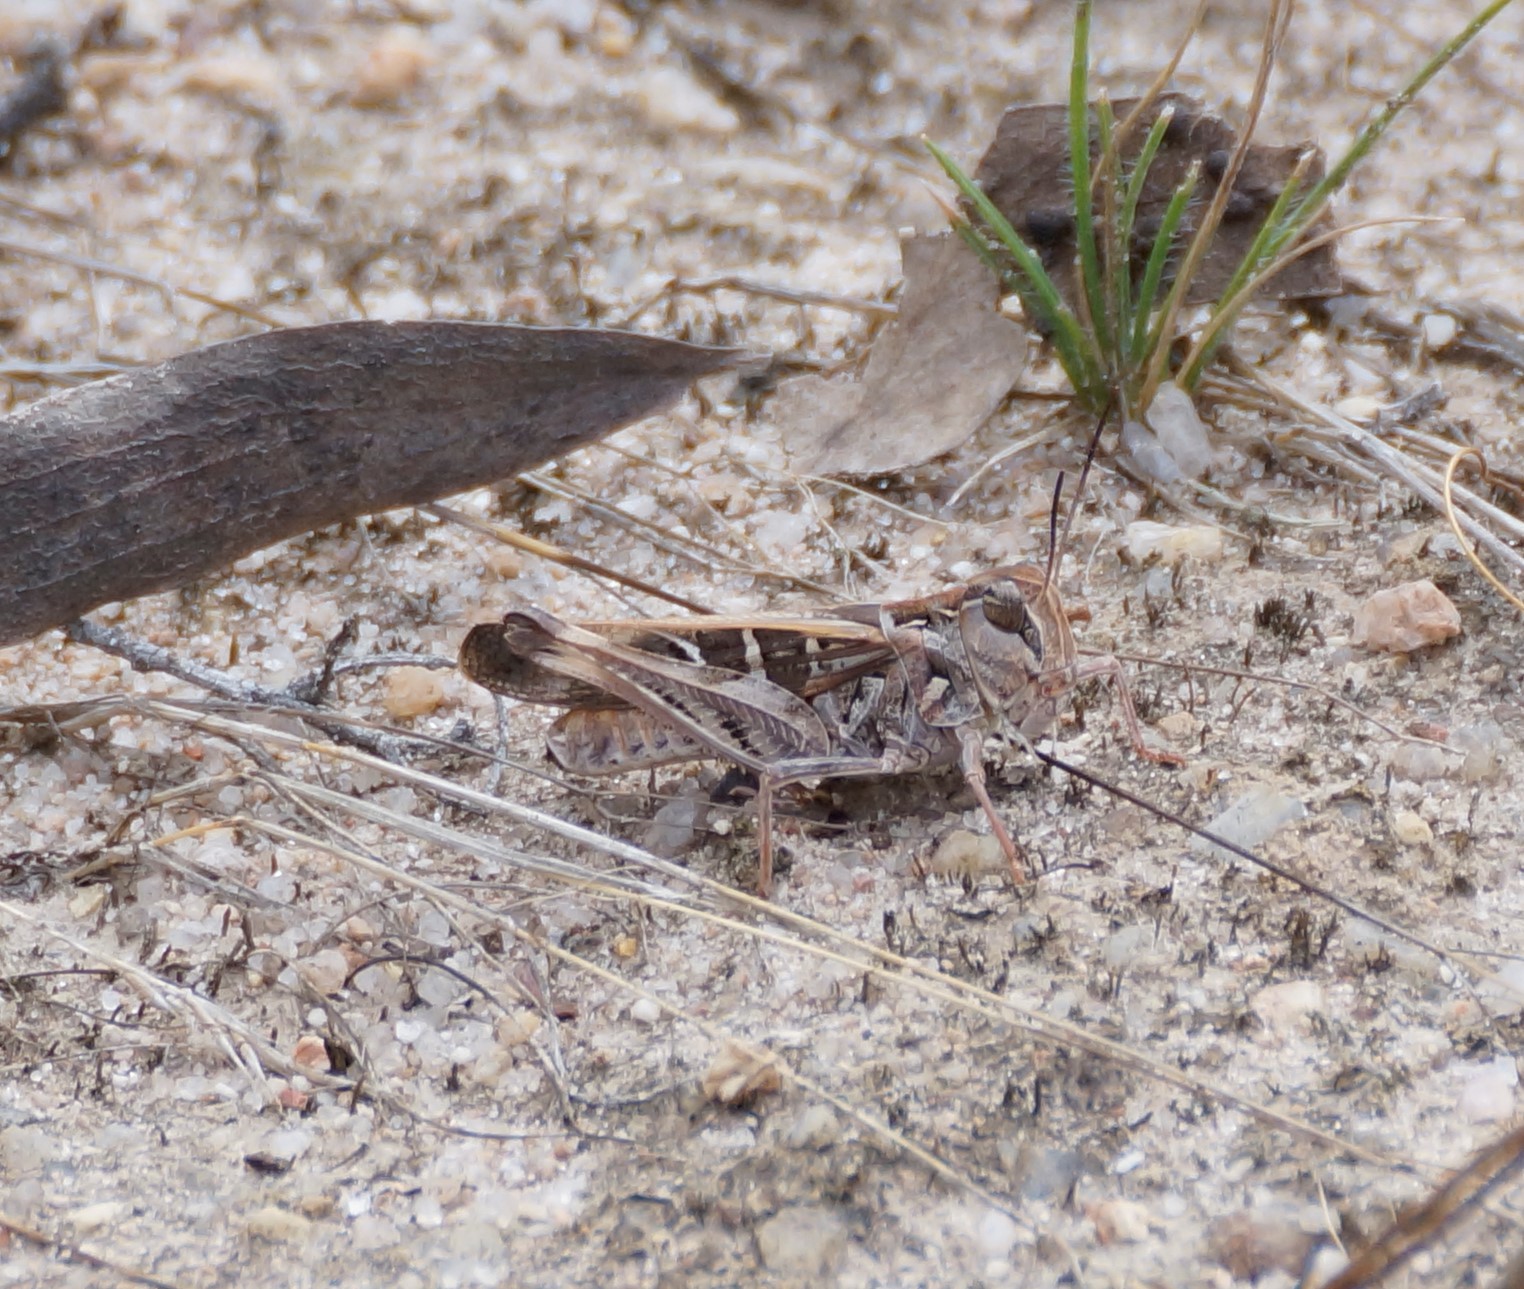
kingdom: Animalia
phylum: Arthropoda
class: Insecta
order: Orthoptera
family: Acrididae
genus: Oedaleus
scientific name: Oedaleus australis
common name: Eastern oedaleus
